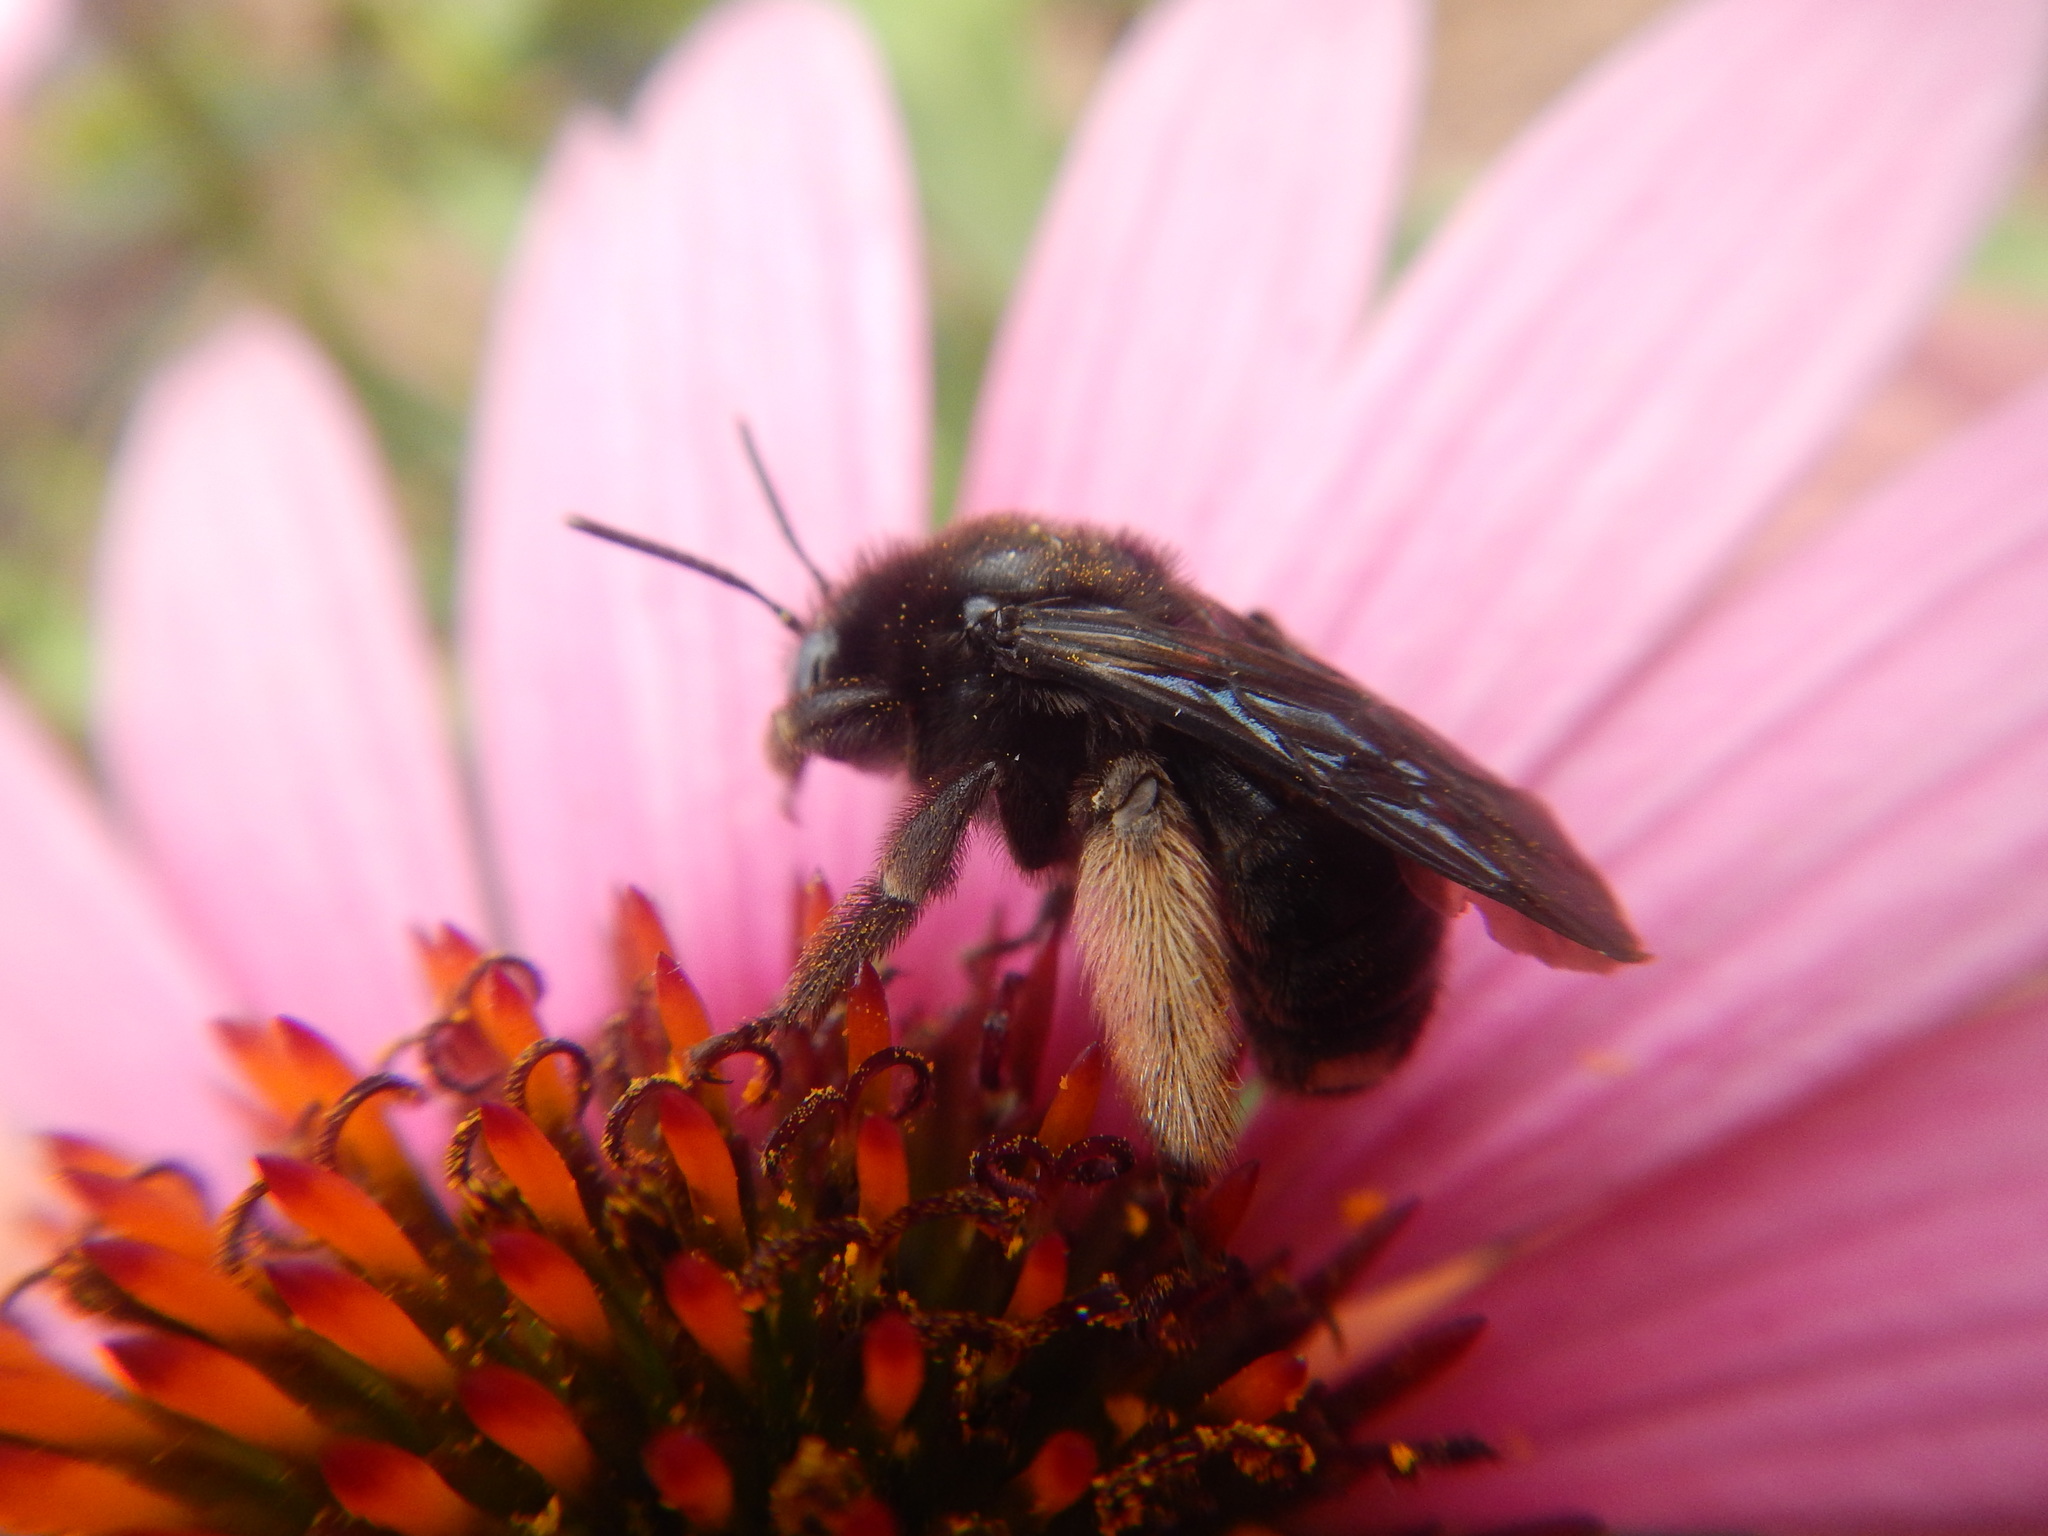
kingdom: Animalia
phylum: Arthropoda
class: Insecta
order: Hymenoptera
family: Apidae
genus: Melissodes
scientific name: Melissodes bimaculatus
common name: Two-spotted long-horned bee
